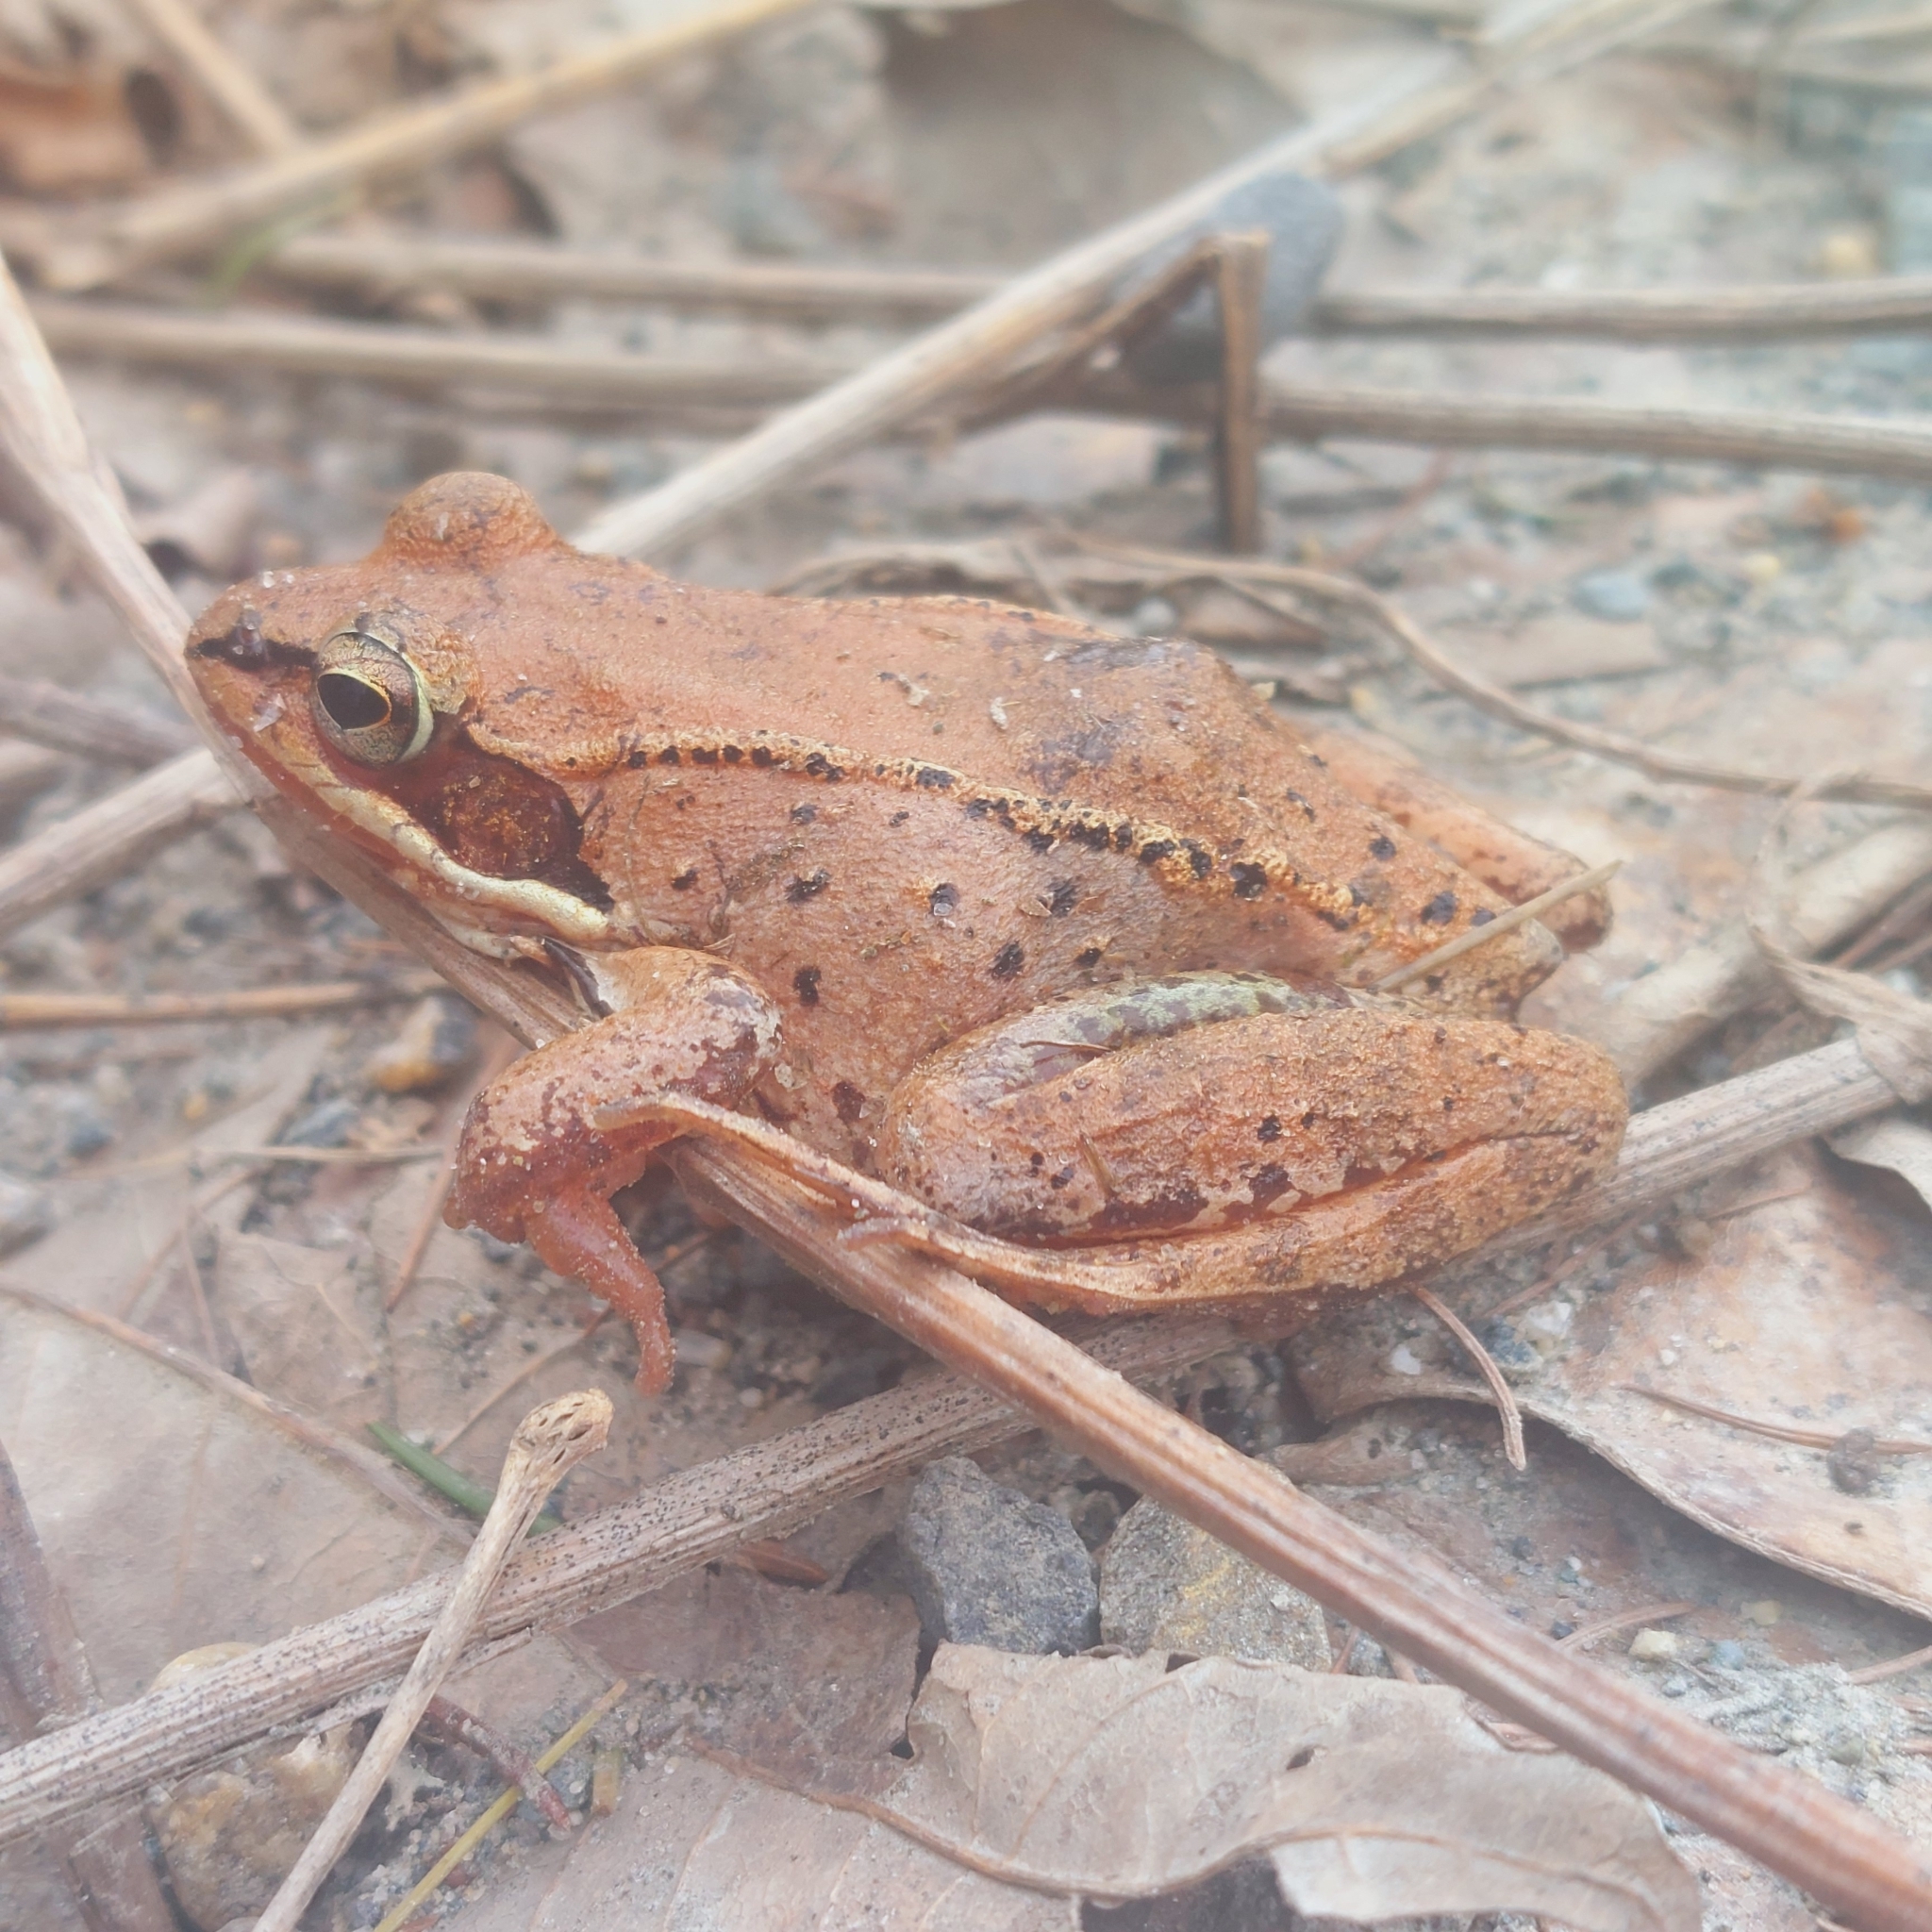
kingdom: Animalia
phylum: Chordata
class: Amphibia
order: Anura
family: Ranidae
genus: Lithobates
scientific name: Lithobates sylvaticus
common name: Wood frog
